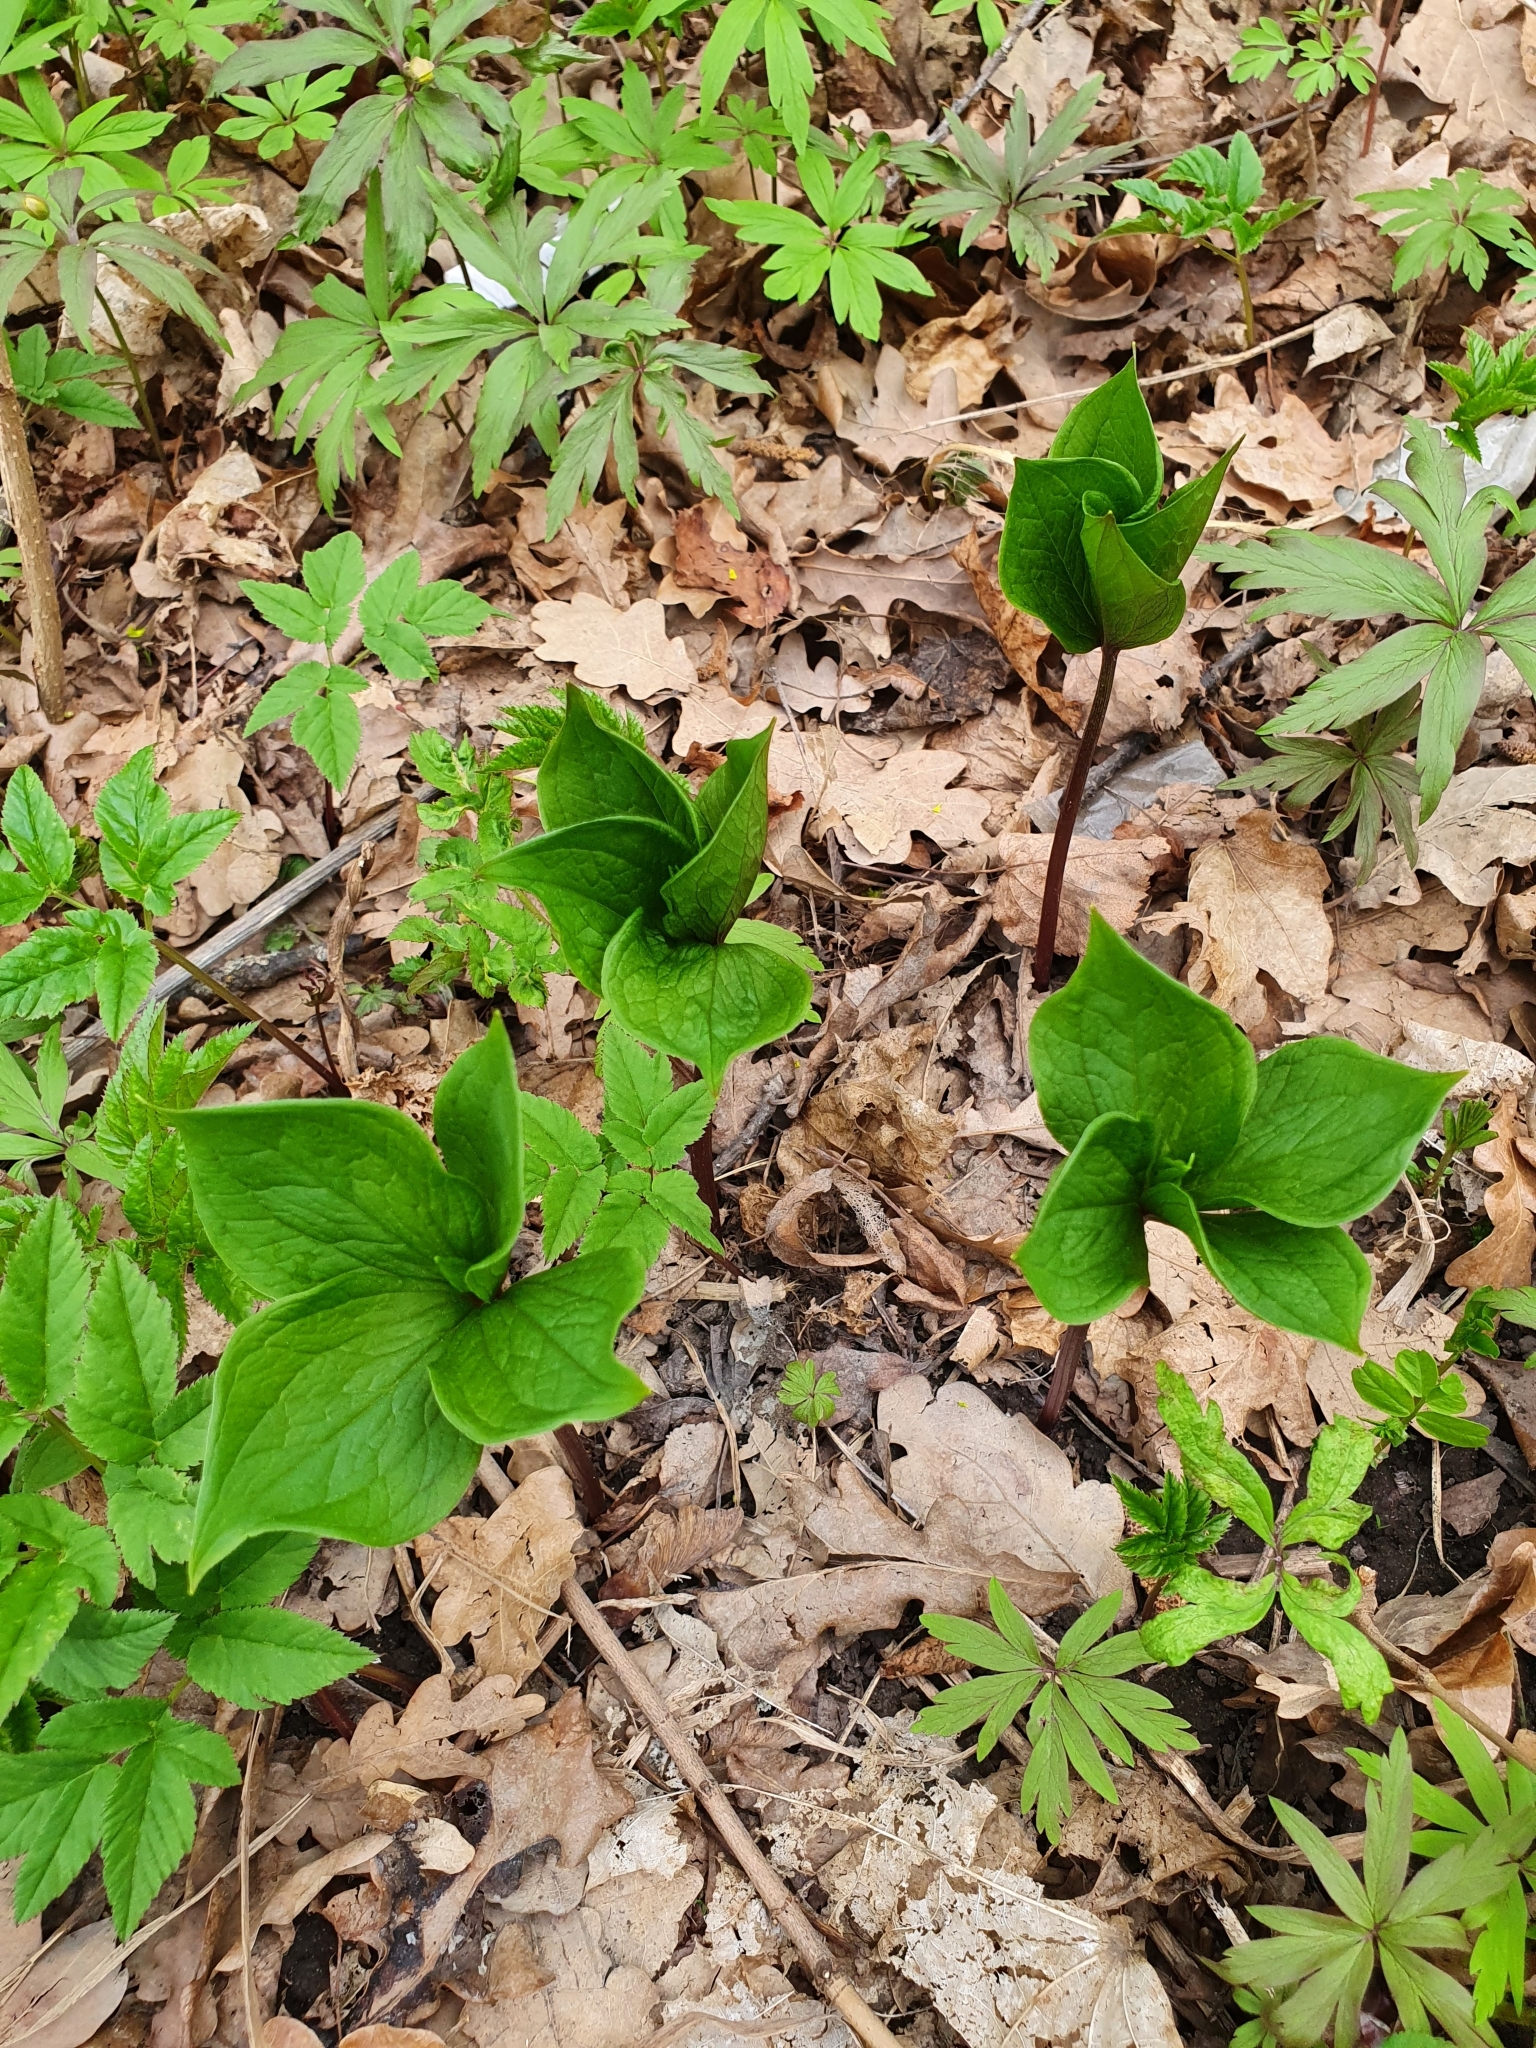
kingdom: Plantae
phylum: Tracheophyta
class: Liliopsida
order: Liliales
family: Melanthiaceae
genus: Paris
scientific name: Paris quadrifolia
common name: Herb-paris
